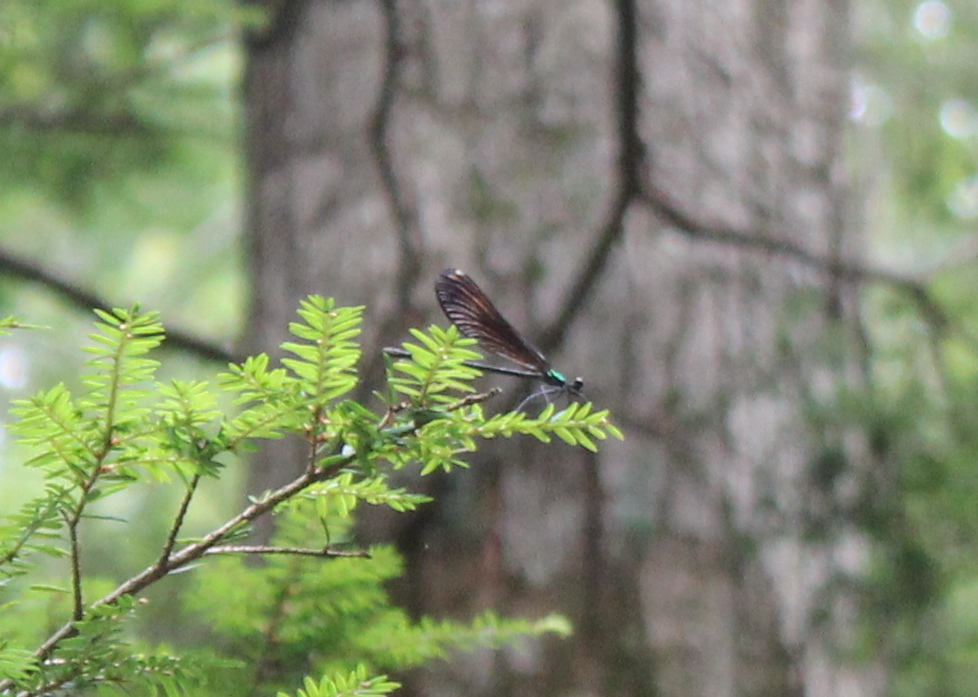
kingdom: Animalia
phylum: Arthropoda
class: Insecta
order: Odonata
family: Calopterygidae
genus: Calopteryx
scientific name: Calopteryx maculata
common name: Ebony jewelwing
